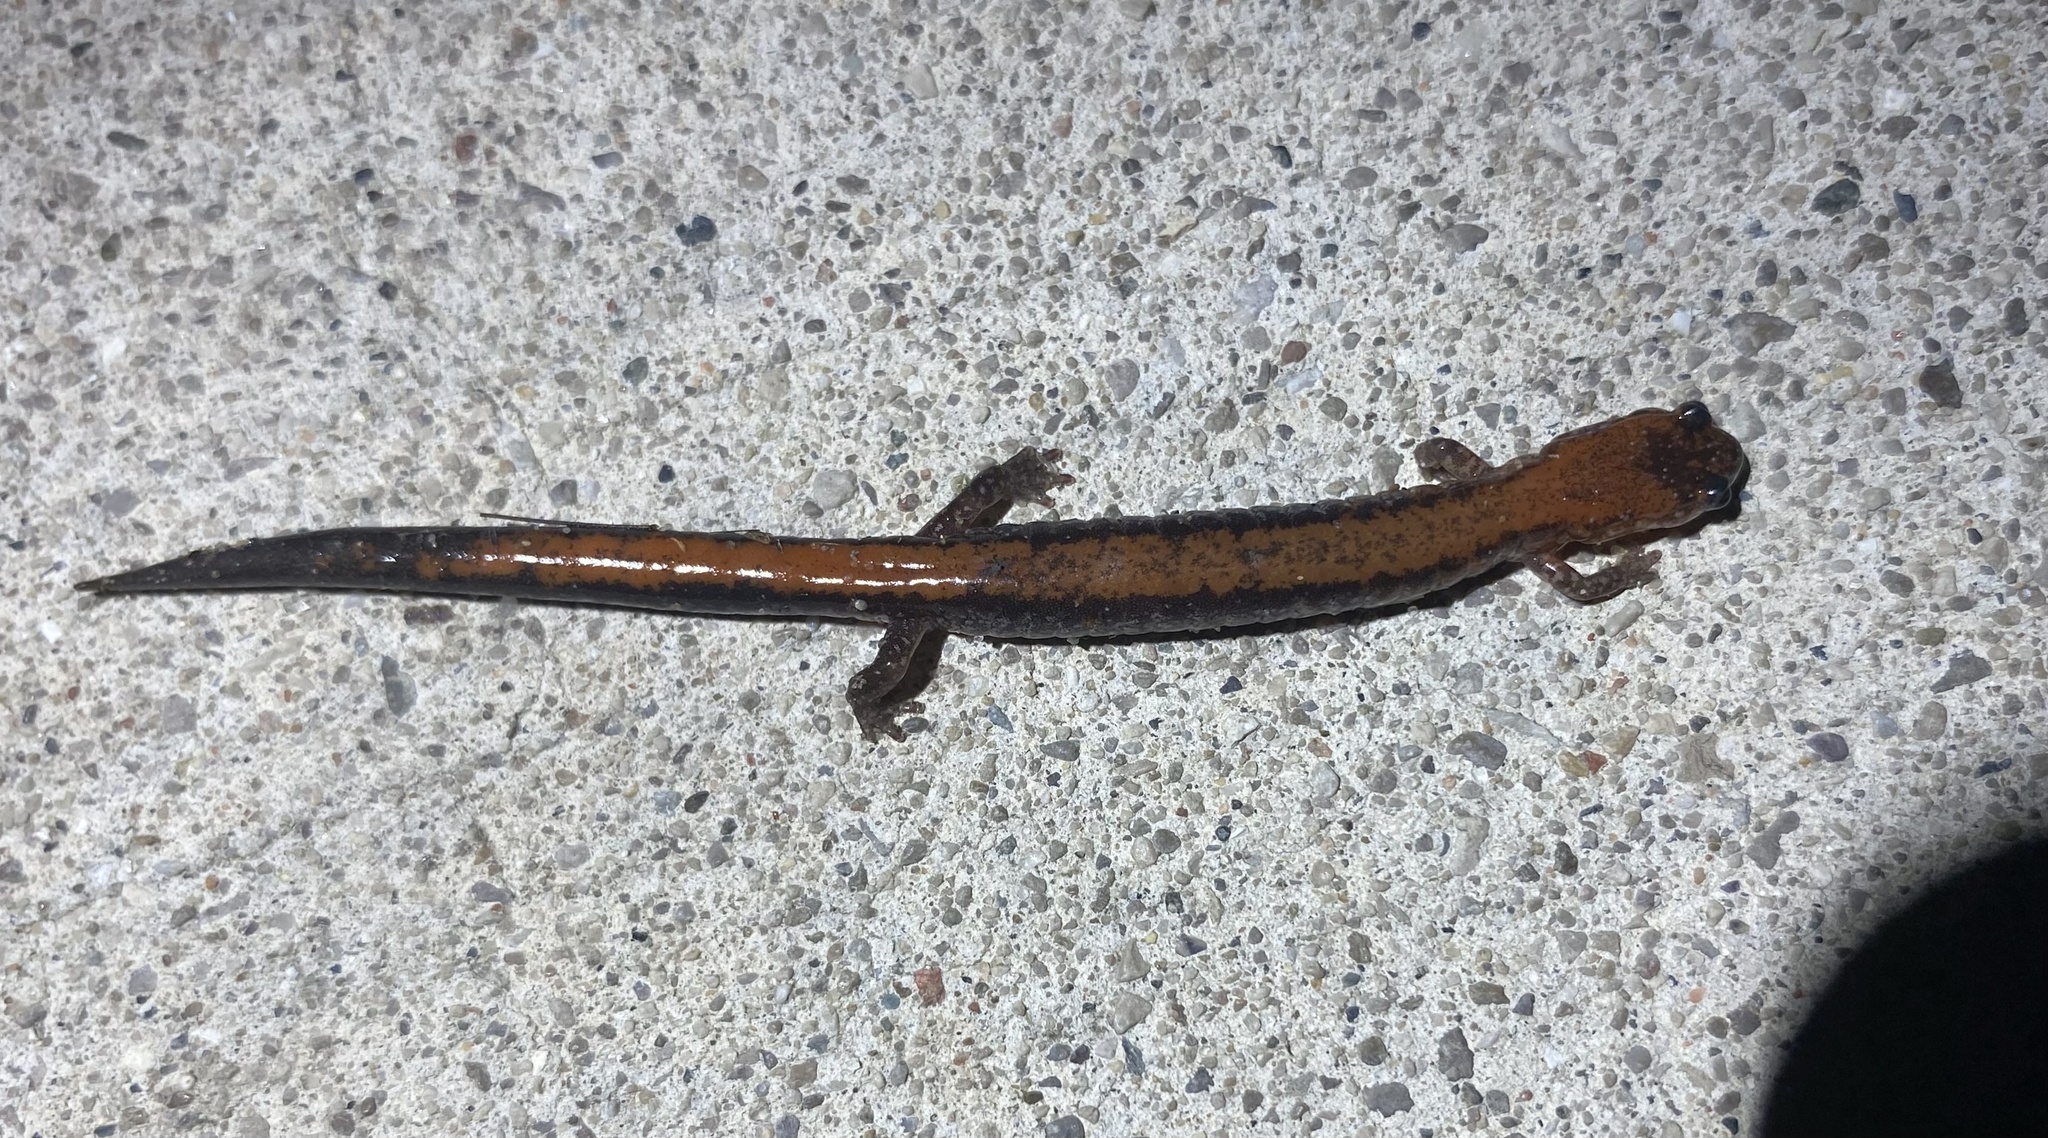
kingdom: Animalia
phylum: Chordata
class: Amphibia
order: Caudata
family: Plethodontidae
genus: Plethodon
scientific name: Plethodon cinereus
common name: Redback salamander
